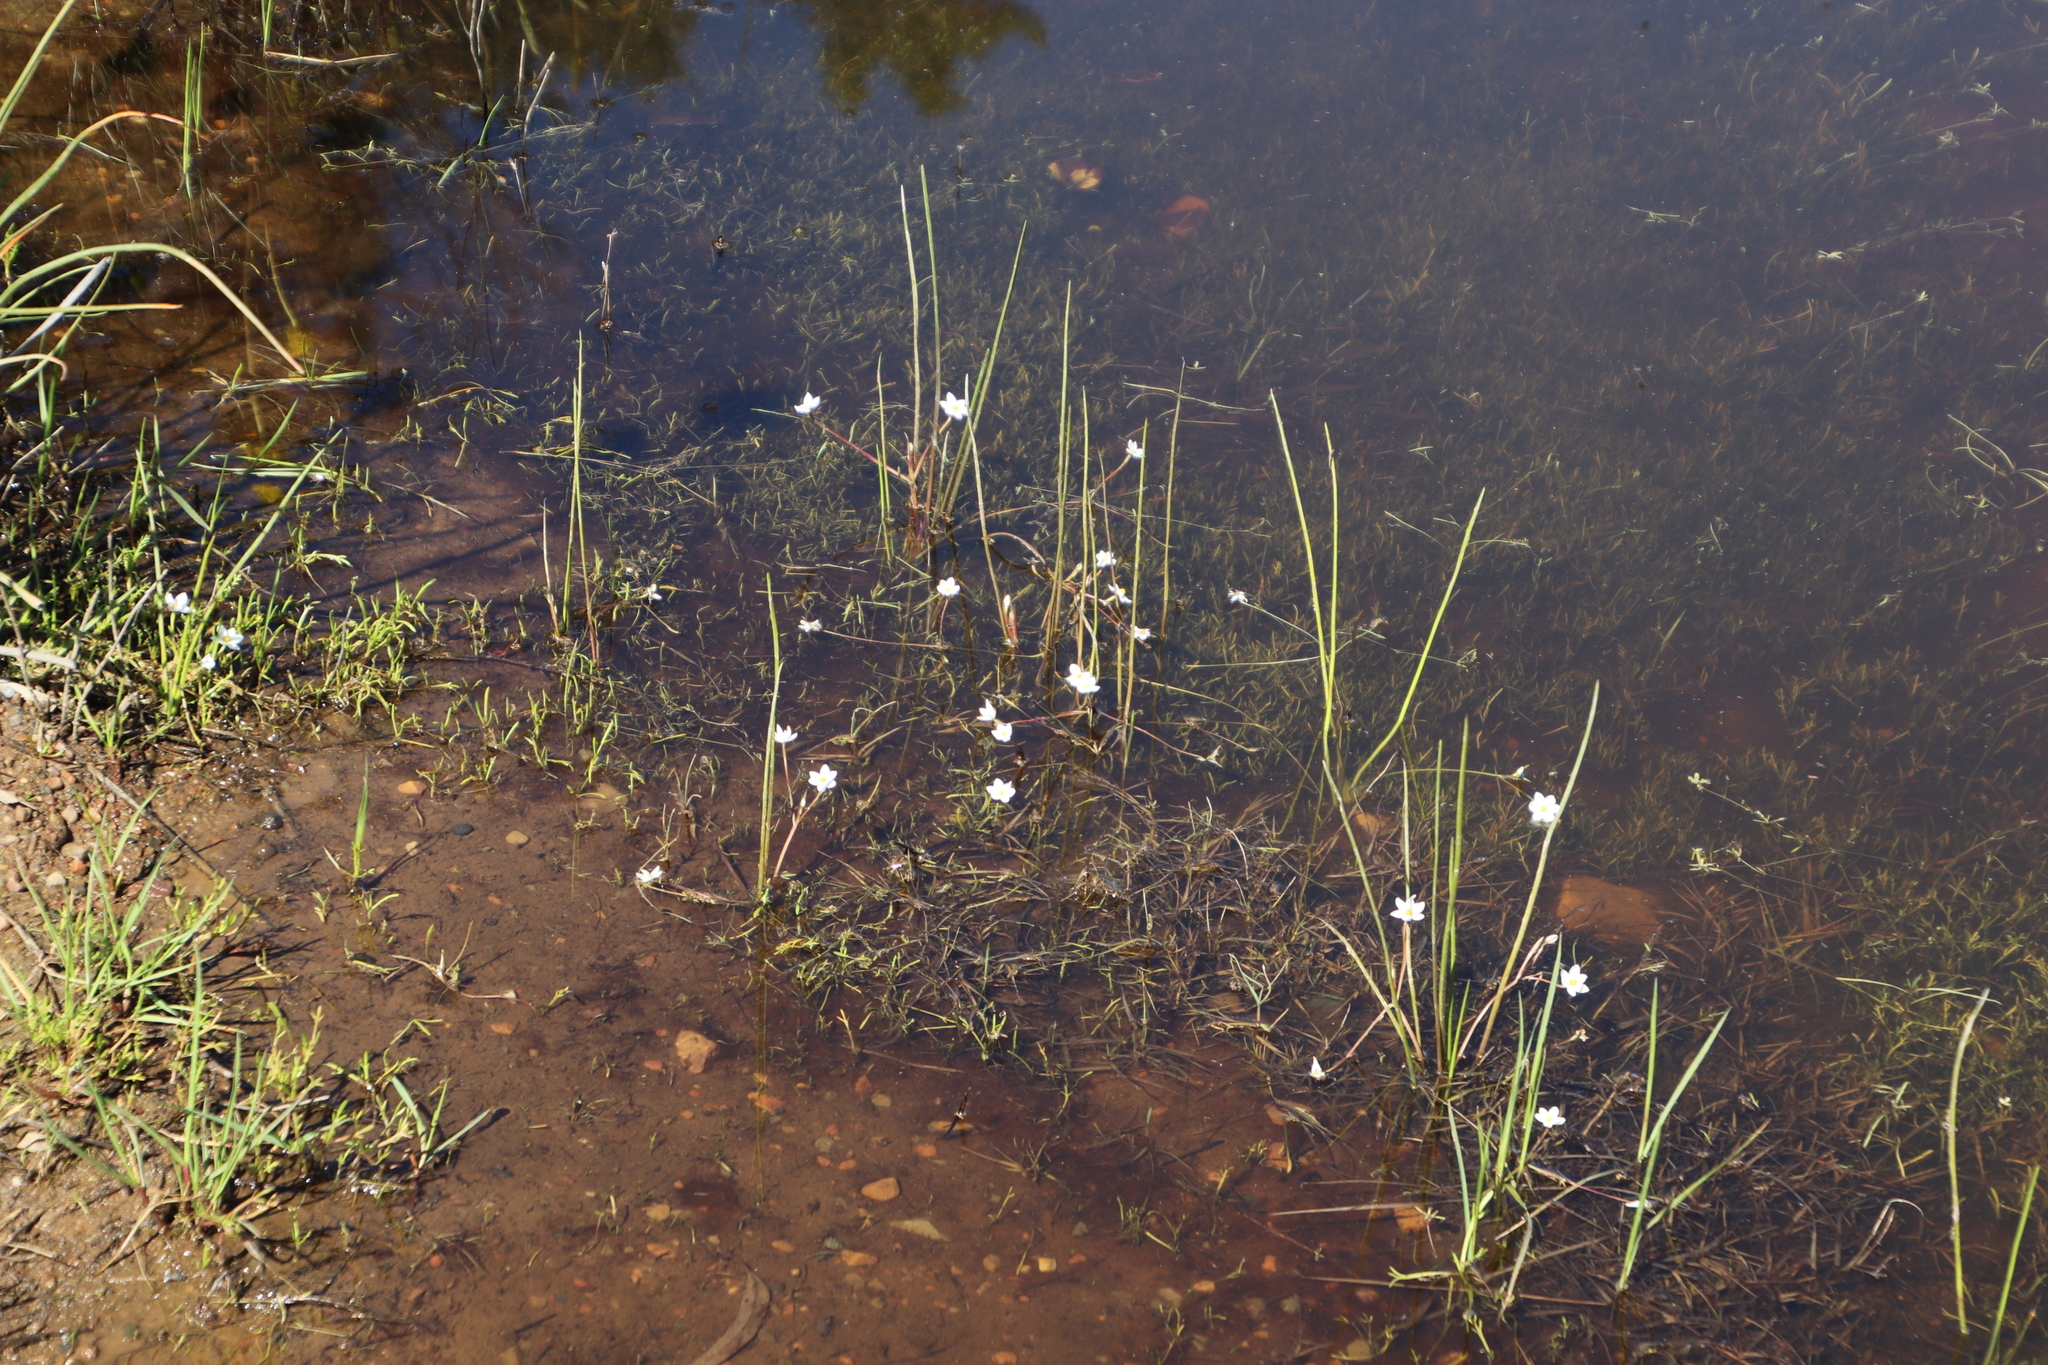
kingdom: Plantae
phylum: Tracheophyta
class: Liliopsida
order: Asparagales
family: Hypoxidaceae
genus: Pauridia
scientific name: Pauridia aquatica
